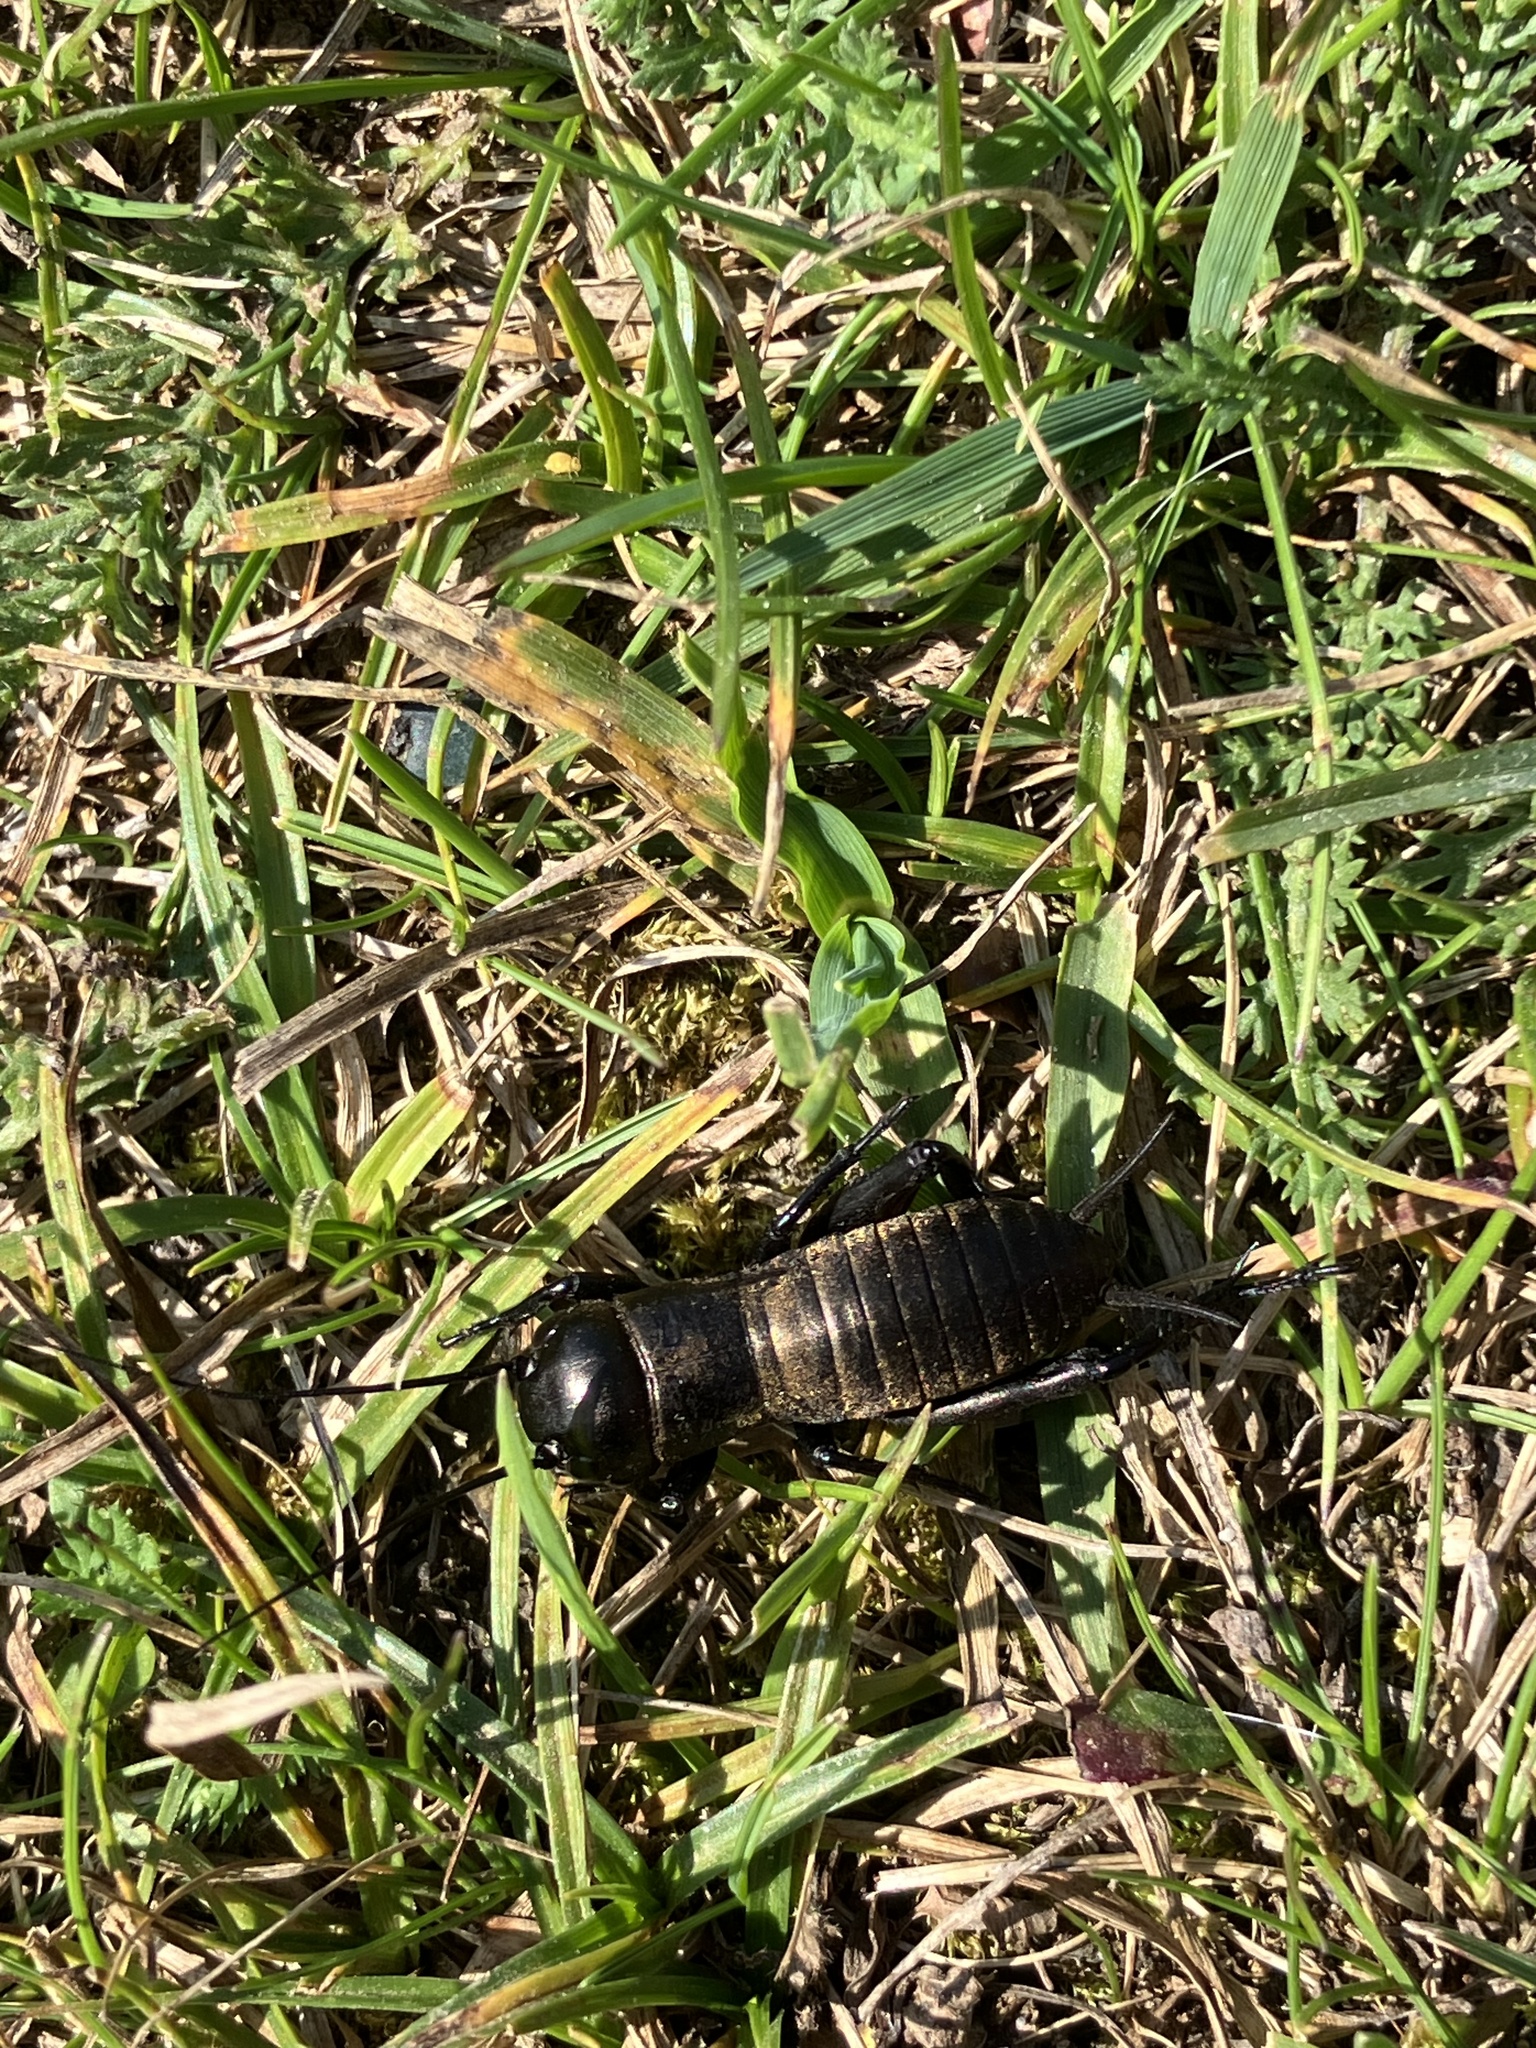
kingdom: Animalia
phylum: Arthropoda
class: Insecta
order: Orthoptera
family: Gryllidae
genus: Gryllus
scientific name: Gryllus campestris
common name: Field cricket
